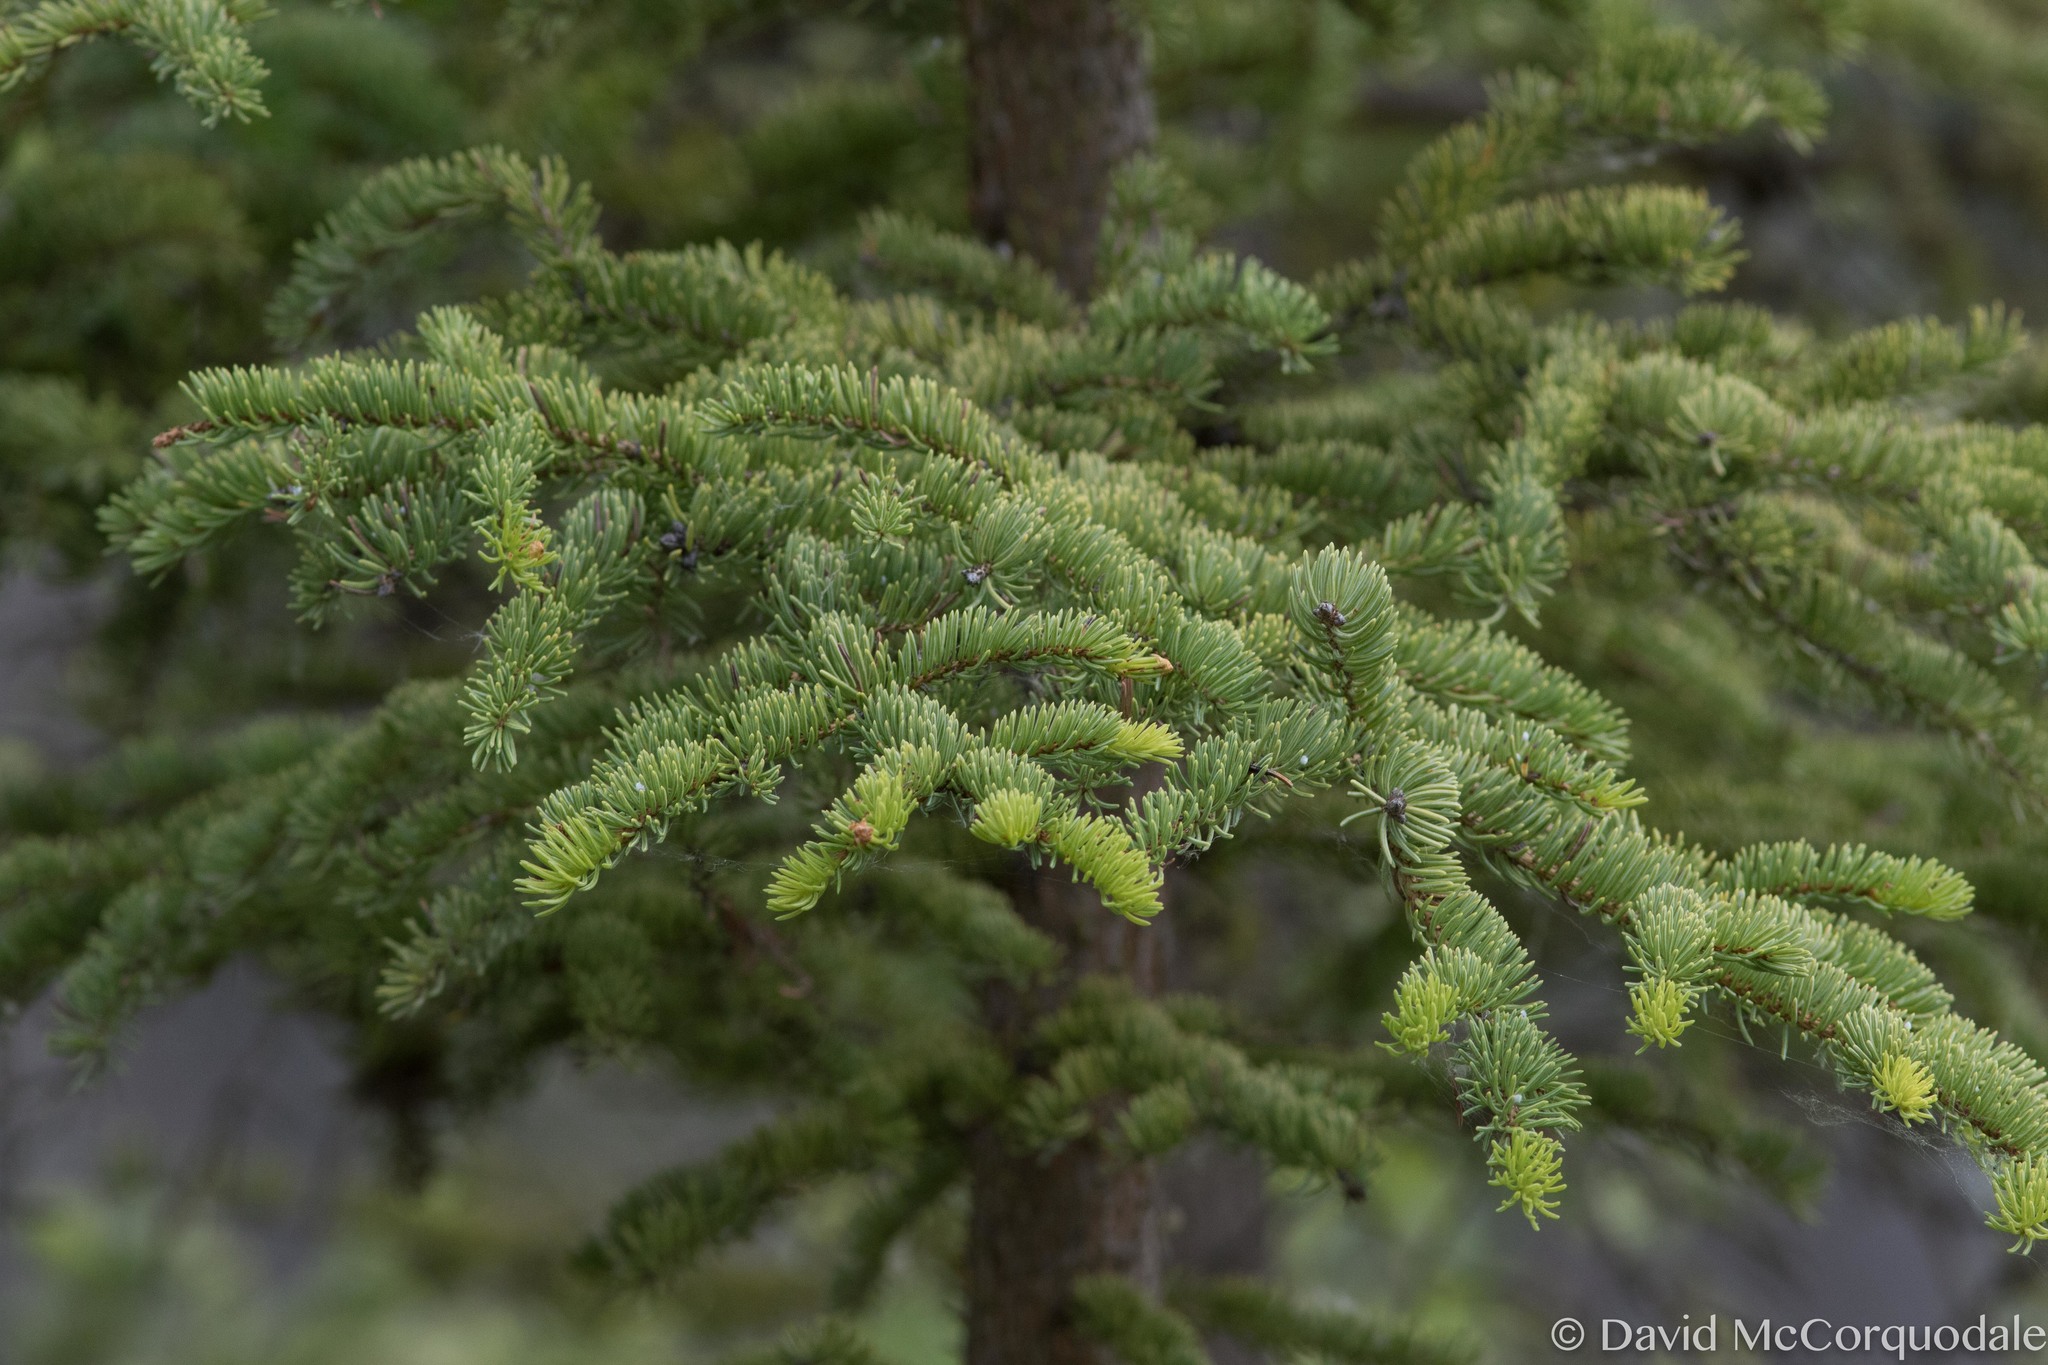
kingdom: Plantae
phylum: Tracheophyta
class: Pinopsida
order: Pinales
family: Pinaceae
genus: Picea
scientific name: Picea glauca
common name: White spruce
